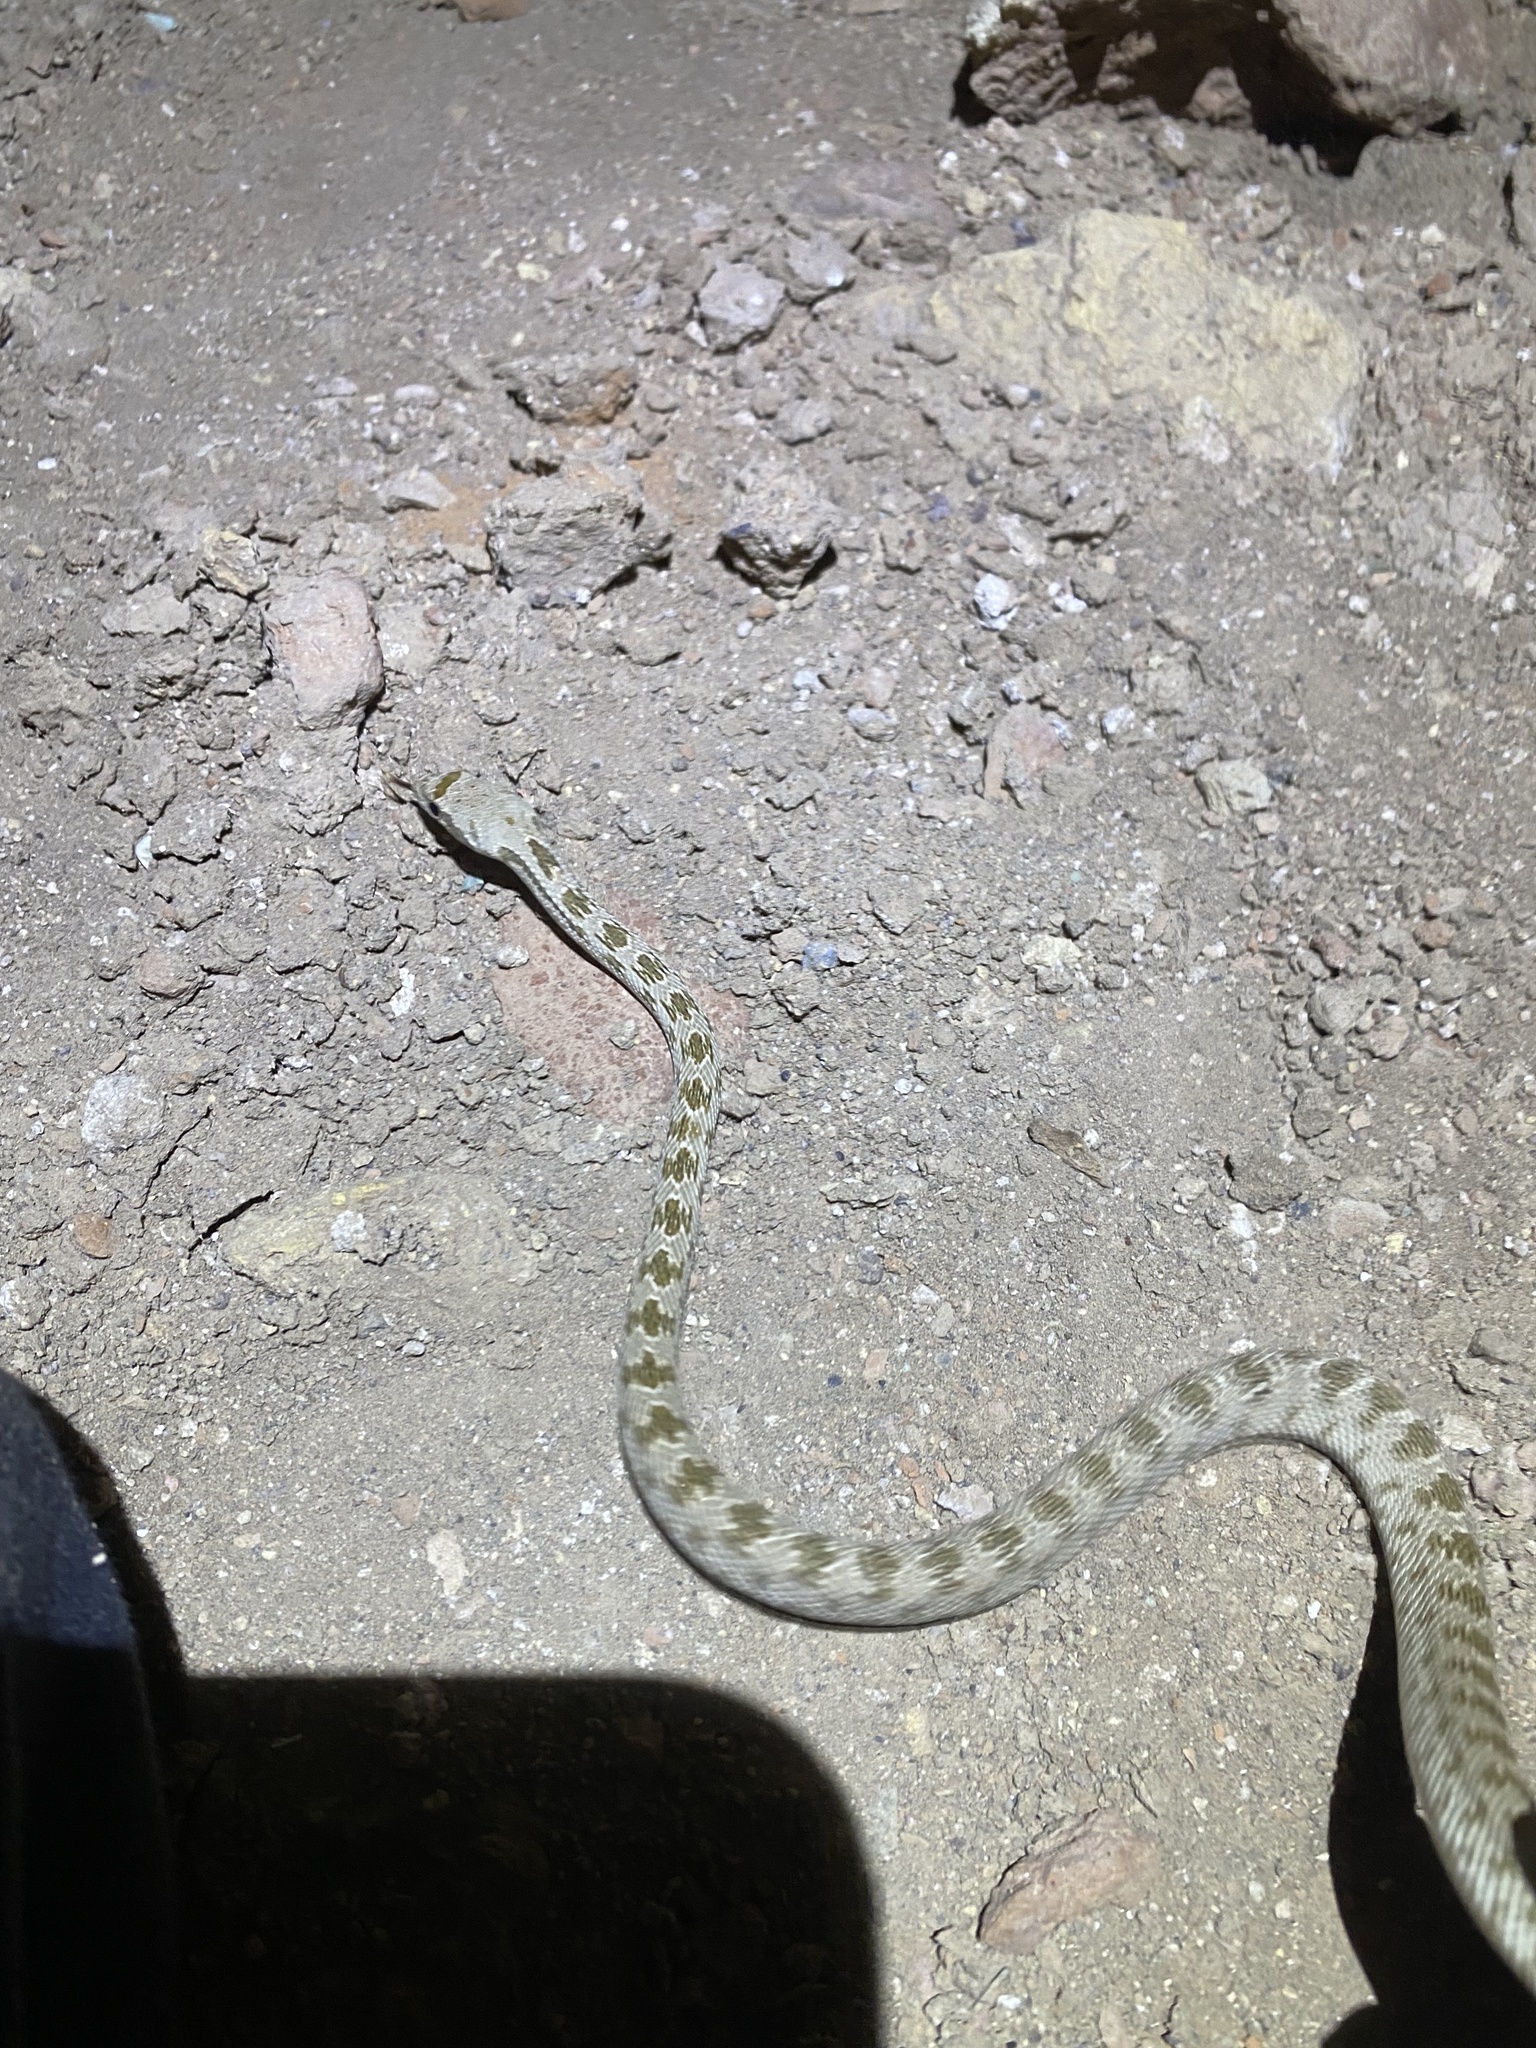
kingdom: Animalia
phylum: Chordata
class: Squamata
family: Colubridae
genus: Spalerosophis
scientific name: Spalerosophis diadema
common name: Diadem snake
